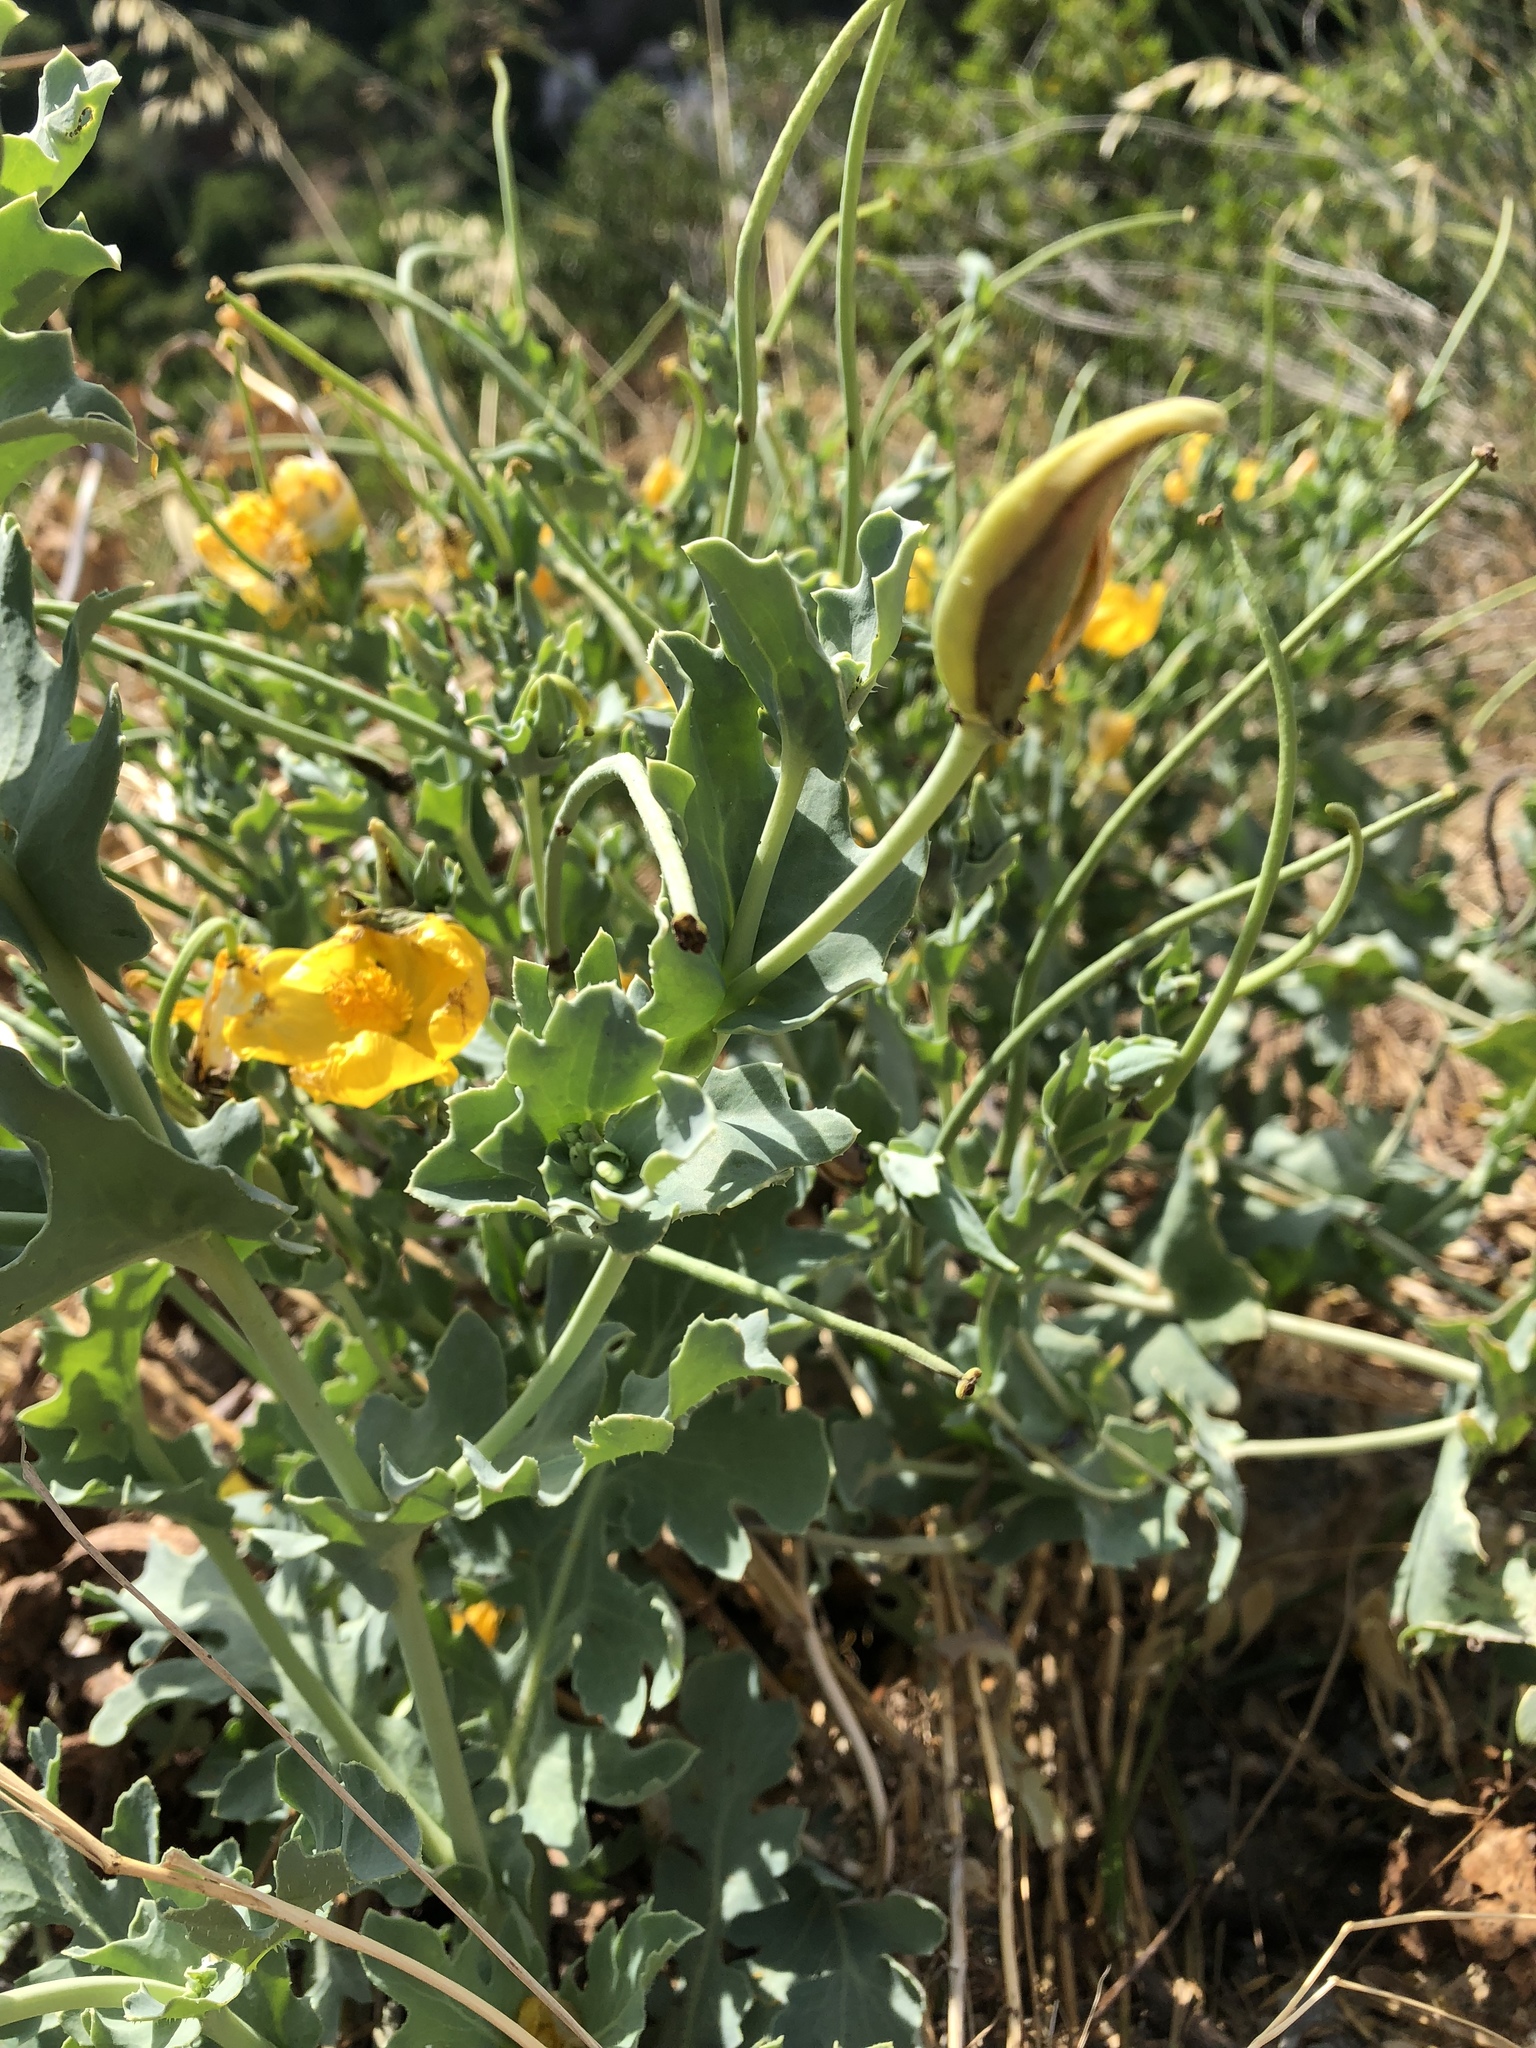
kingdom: Plantae
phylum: Tracheophyta
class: Magnoliopsida
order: Ranunculales
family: Papaveraceae
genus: Glaucium
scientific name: Glaucium flavum
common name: Yellow horned-poppy
